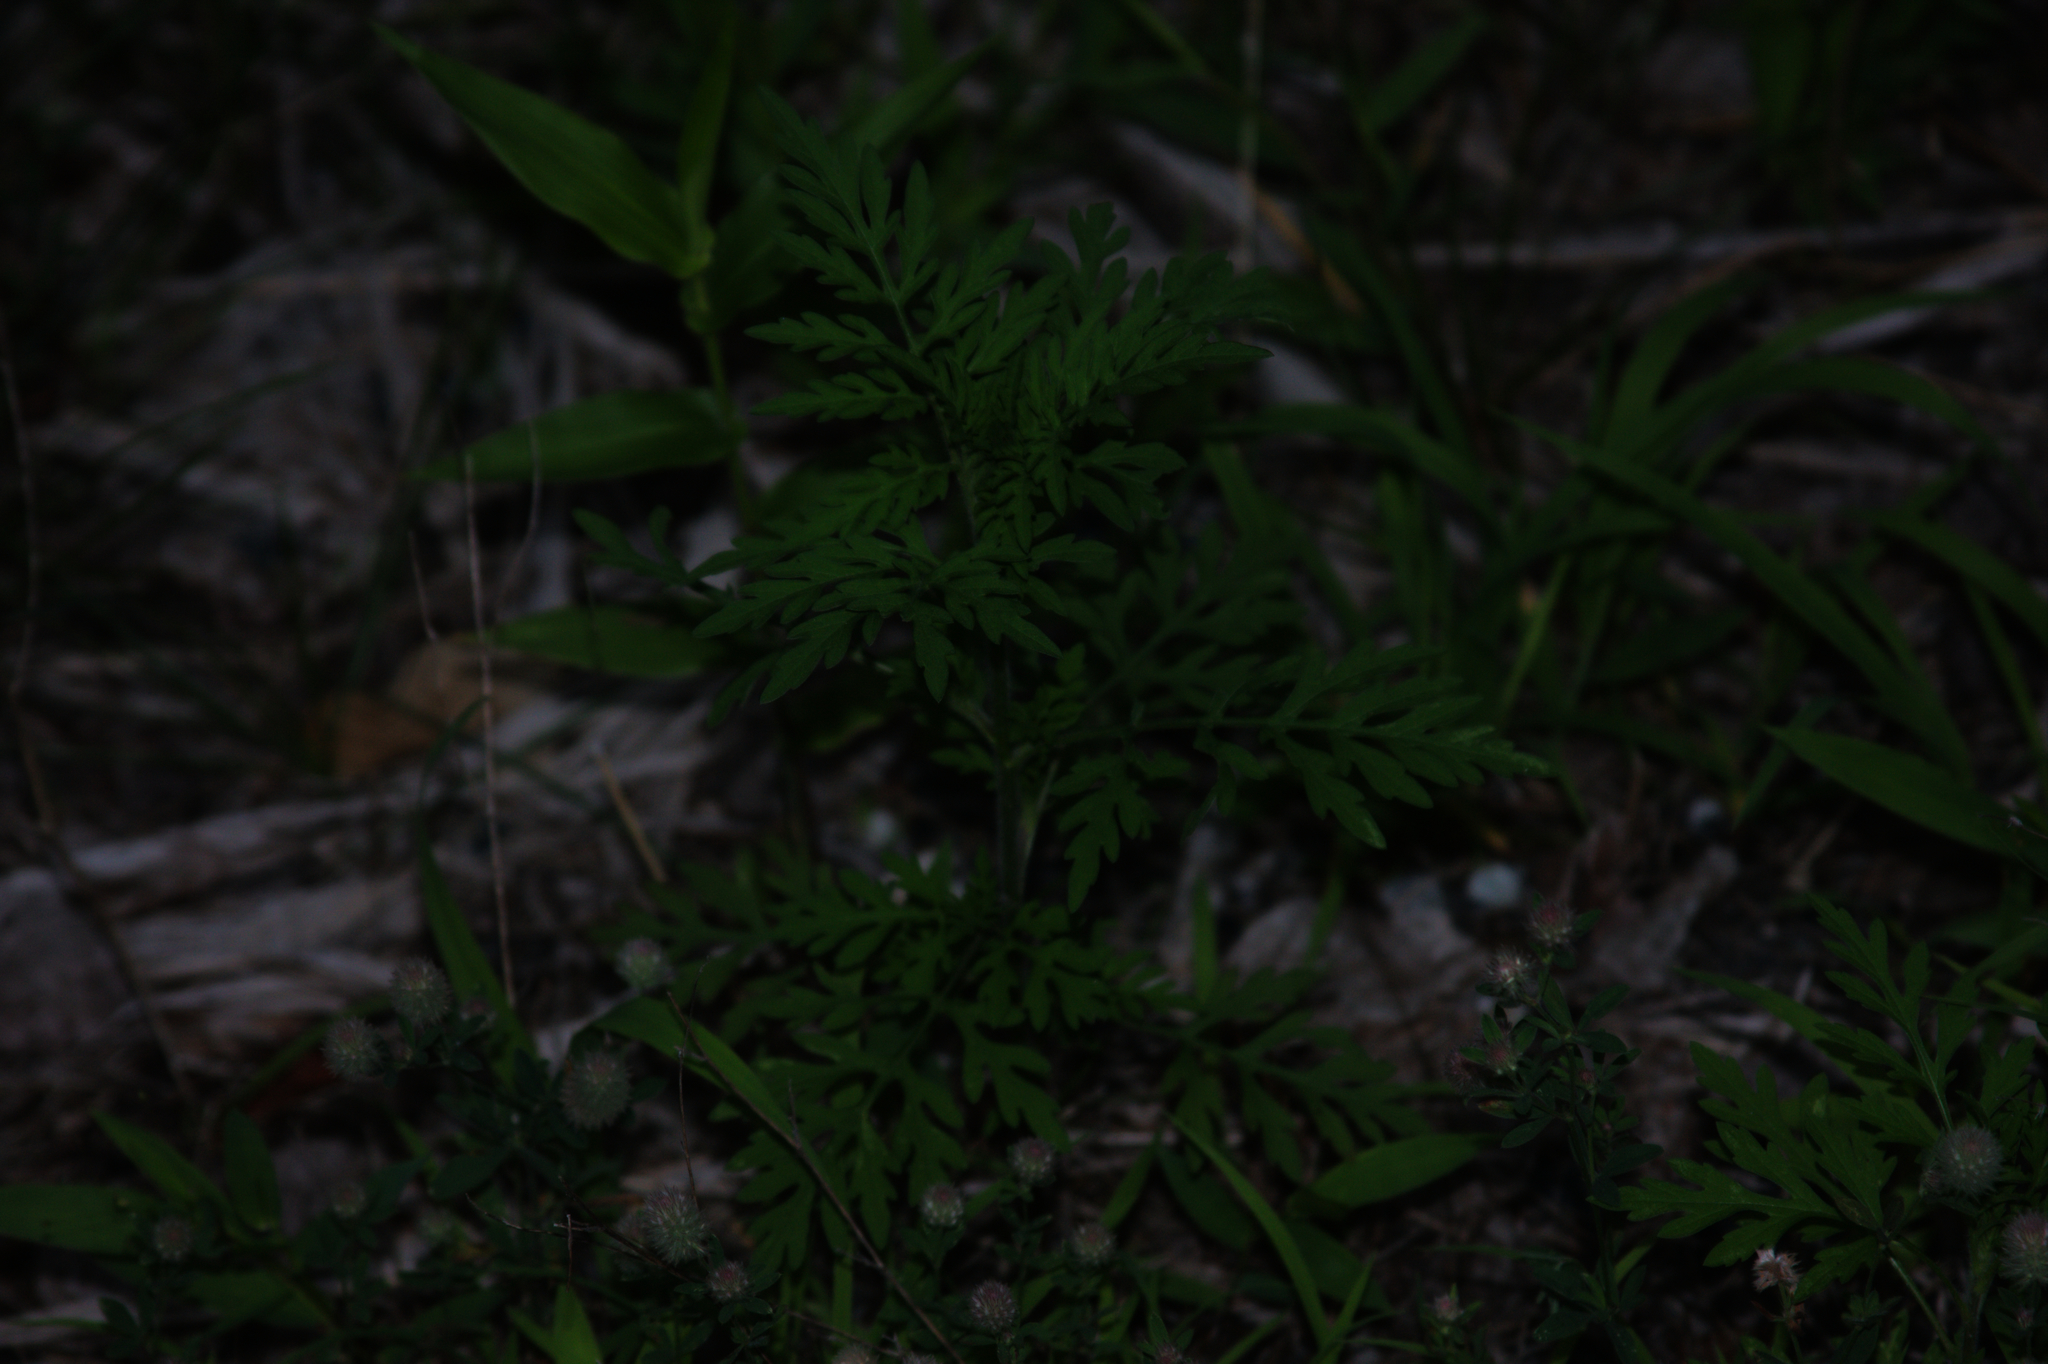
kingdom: Plantae
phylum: Tracheophyta
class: Magnoliopsida
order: Asterales
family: Asteraceae
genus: Ambrosia
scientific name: Ambrosia artemisiifolia
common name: Annual ragweed
